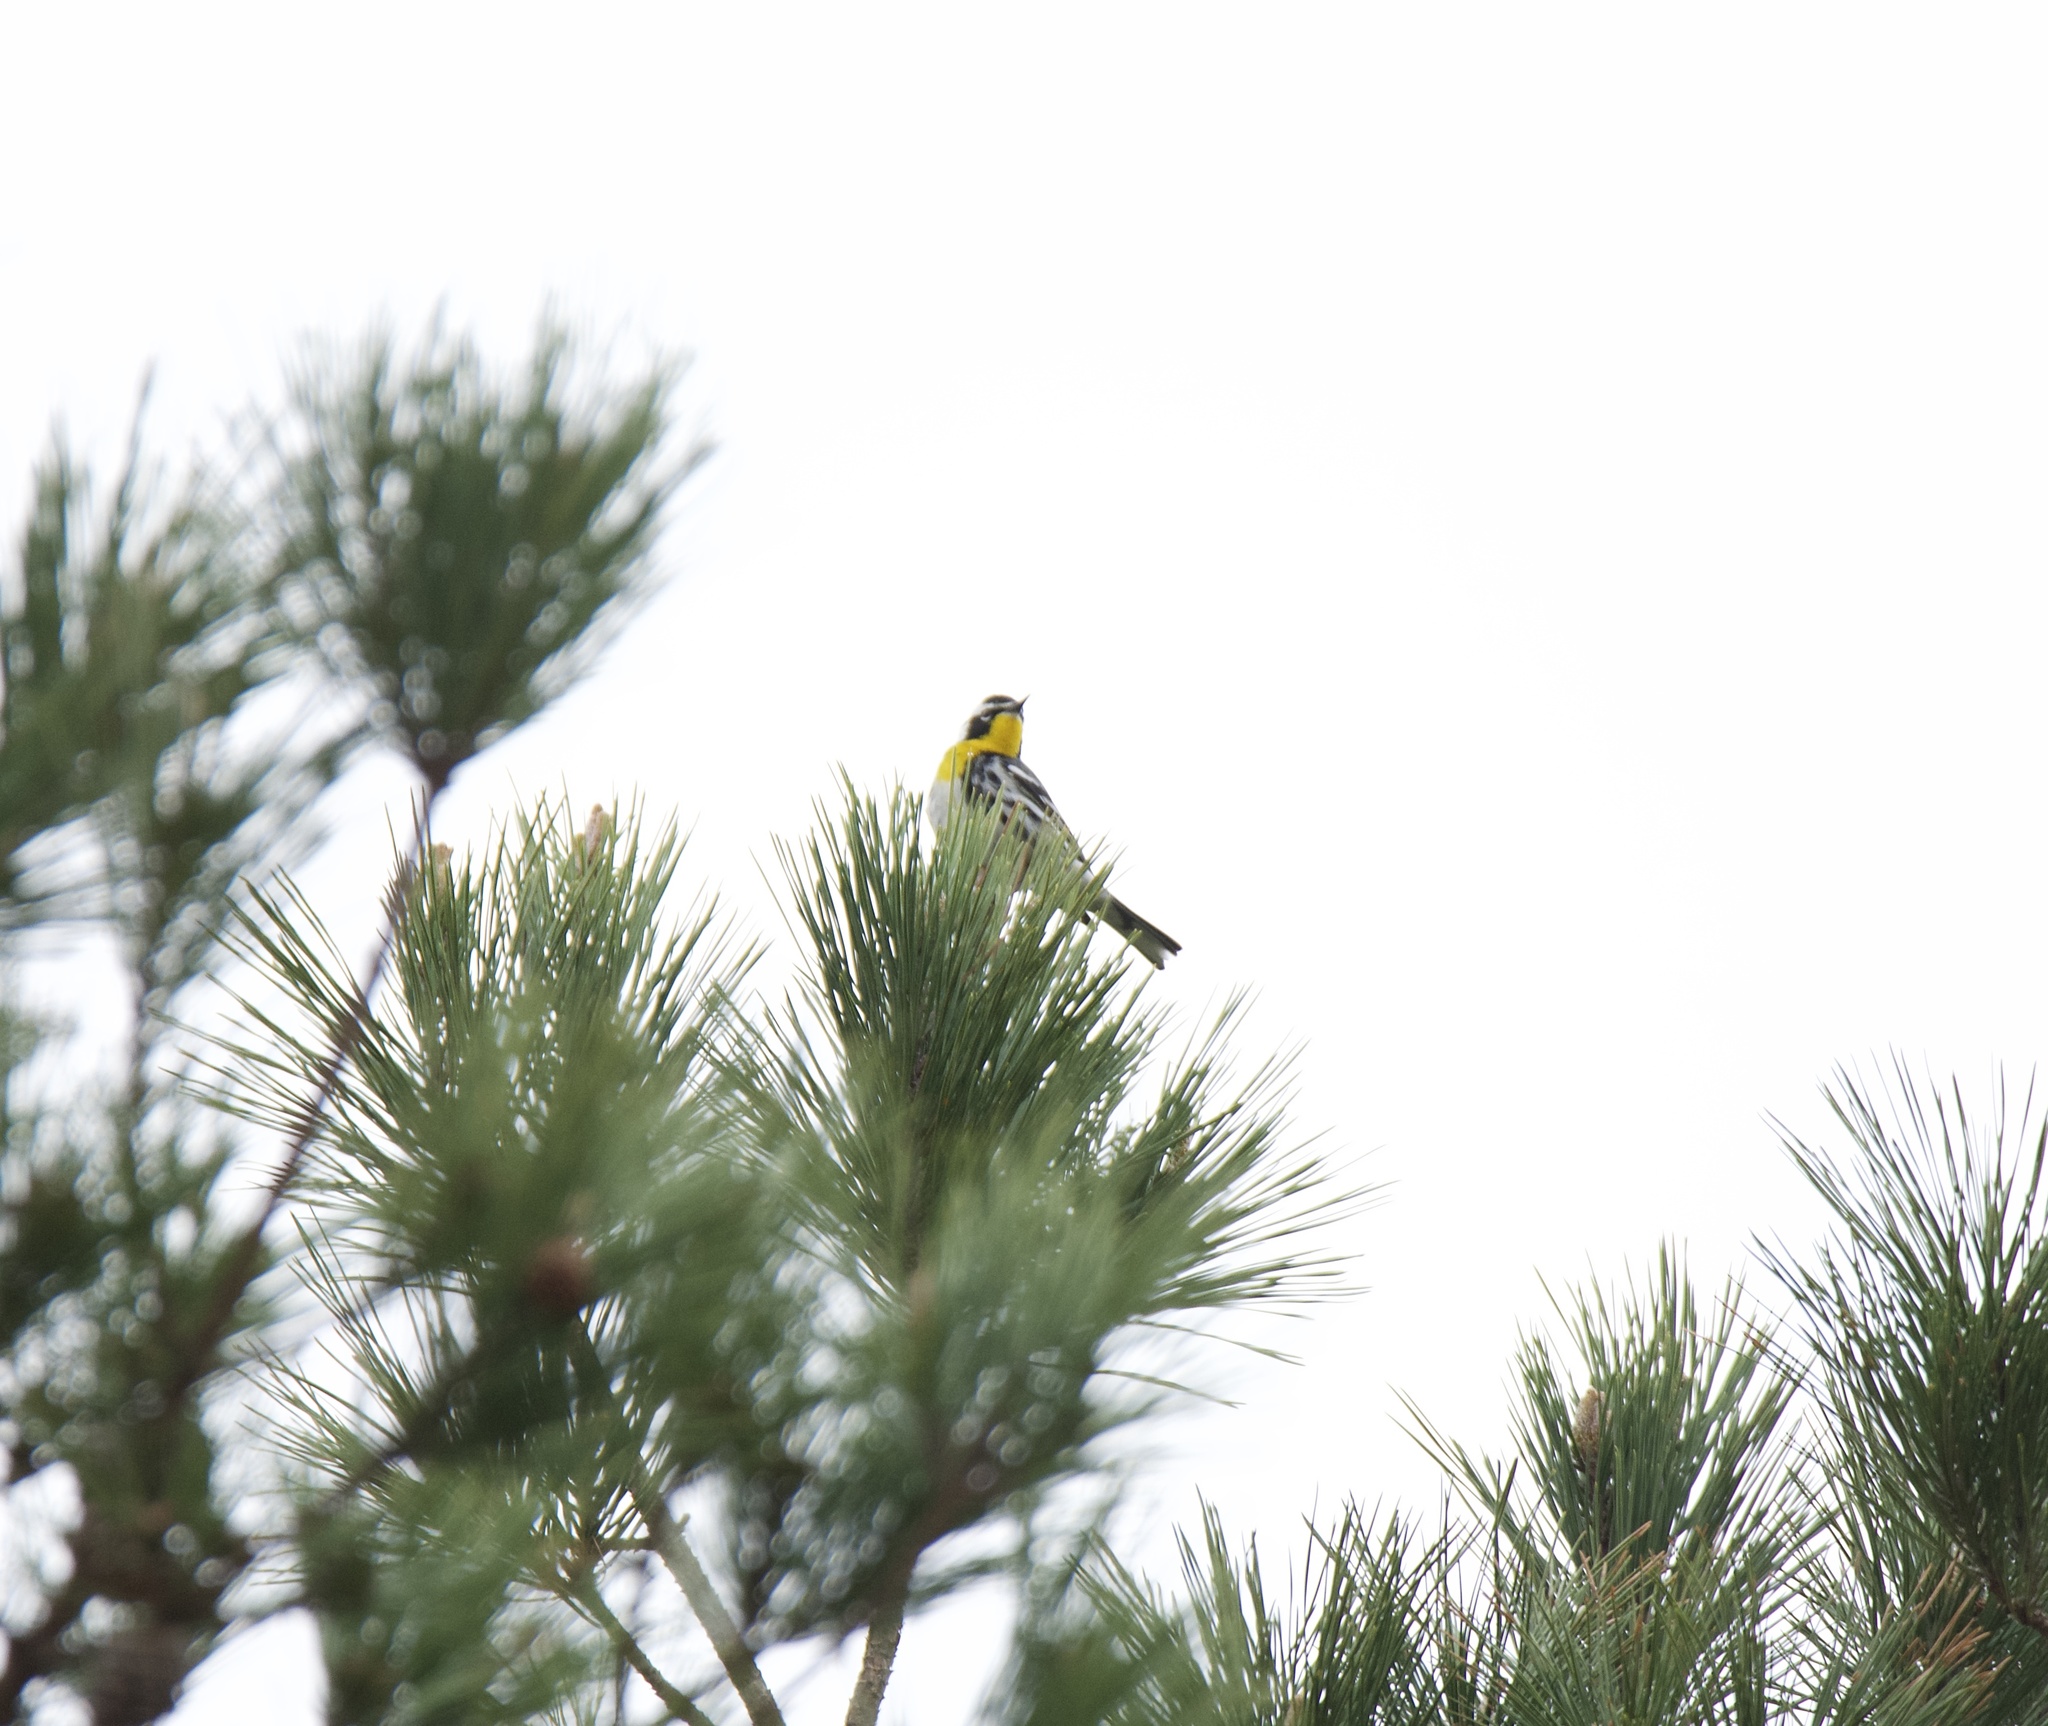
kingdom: Animalia
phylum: Chordata
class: Aves
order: Passeriformes
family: Parulidae
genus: Setophaga
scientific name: Setophaga dominica
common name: Yellow-throated warbler
